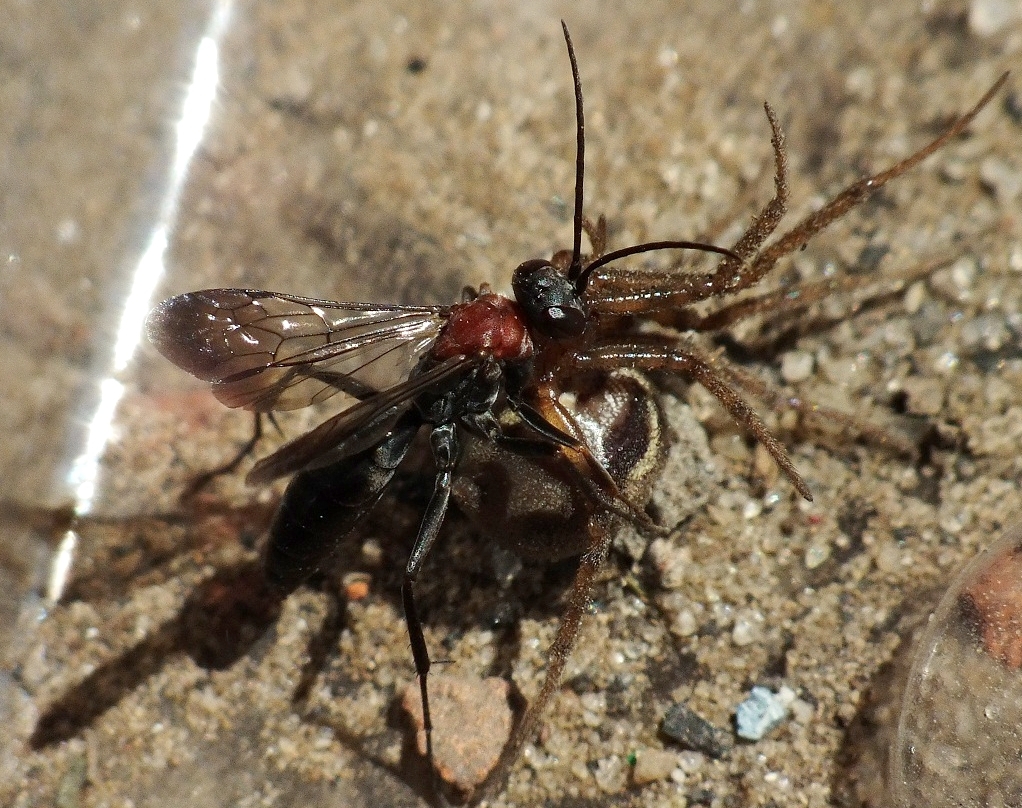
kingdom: Animalia
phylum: Arthropoda
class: Insecta
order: Hymenoptera
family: Pompilidae
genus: Agenioideus
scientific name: Agenioideus ciliatus
